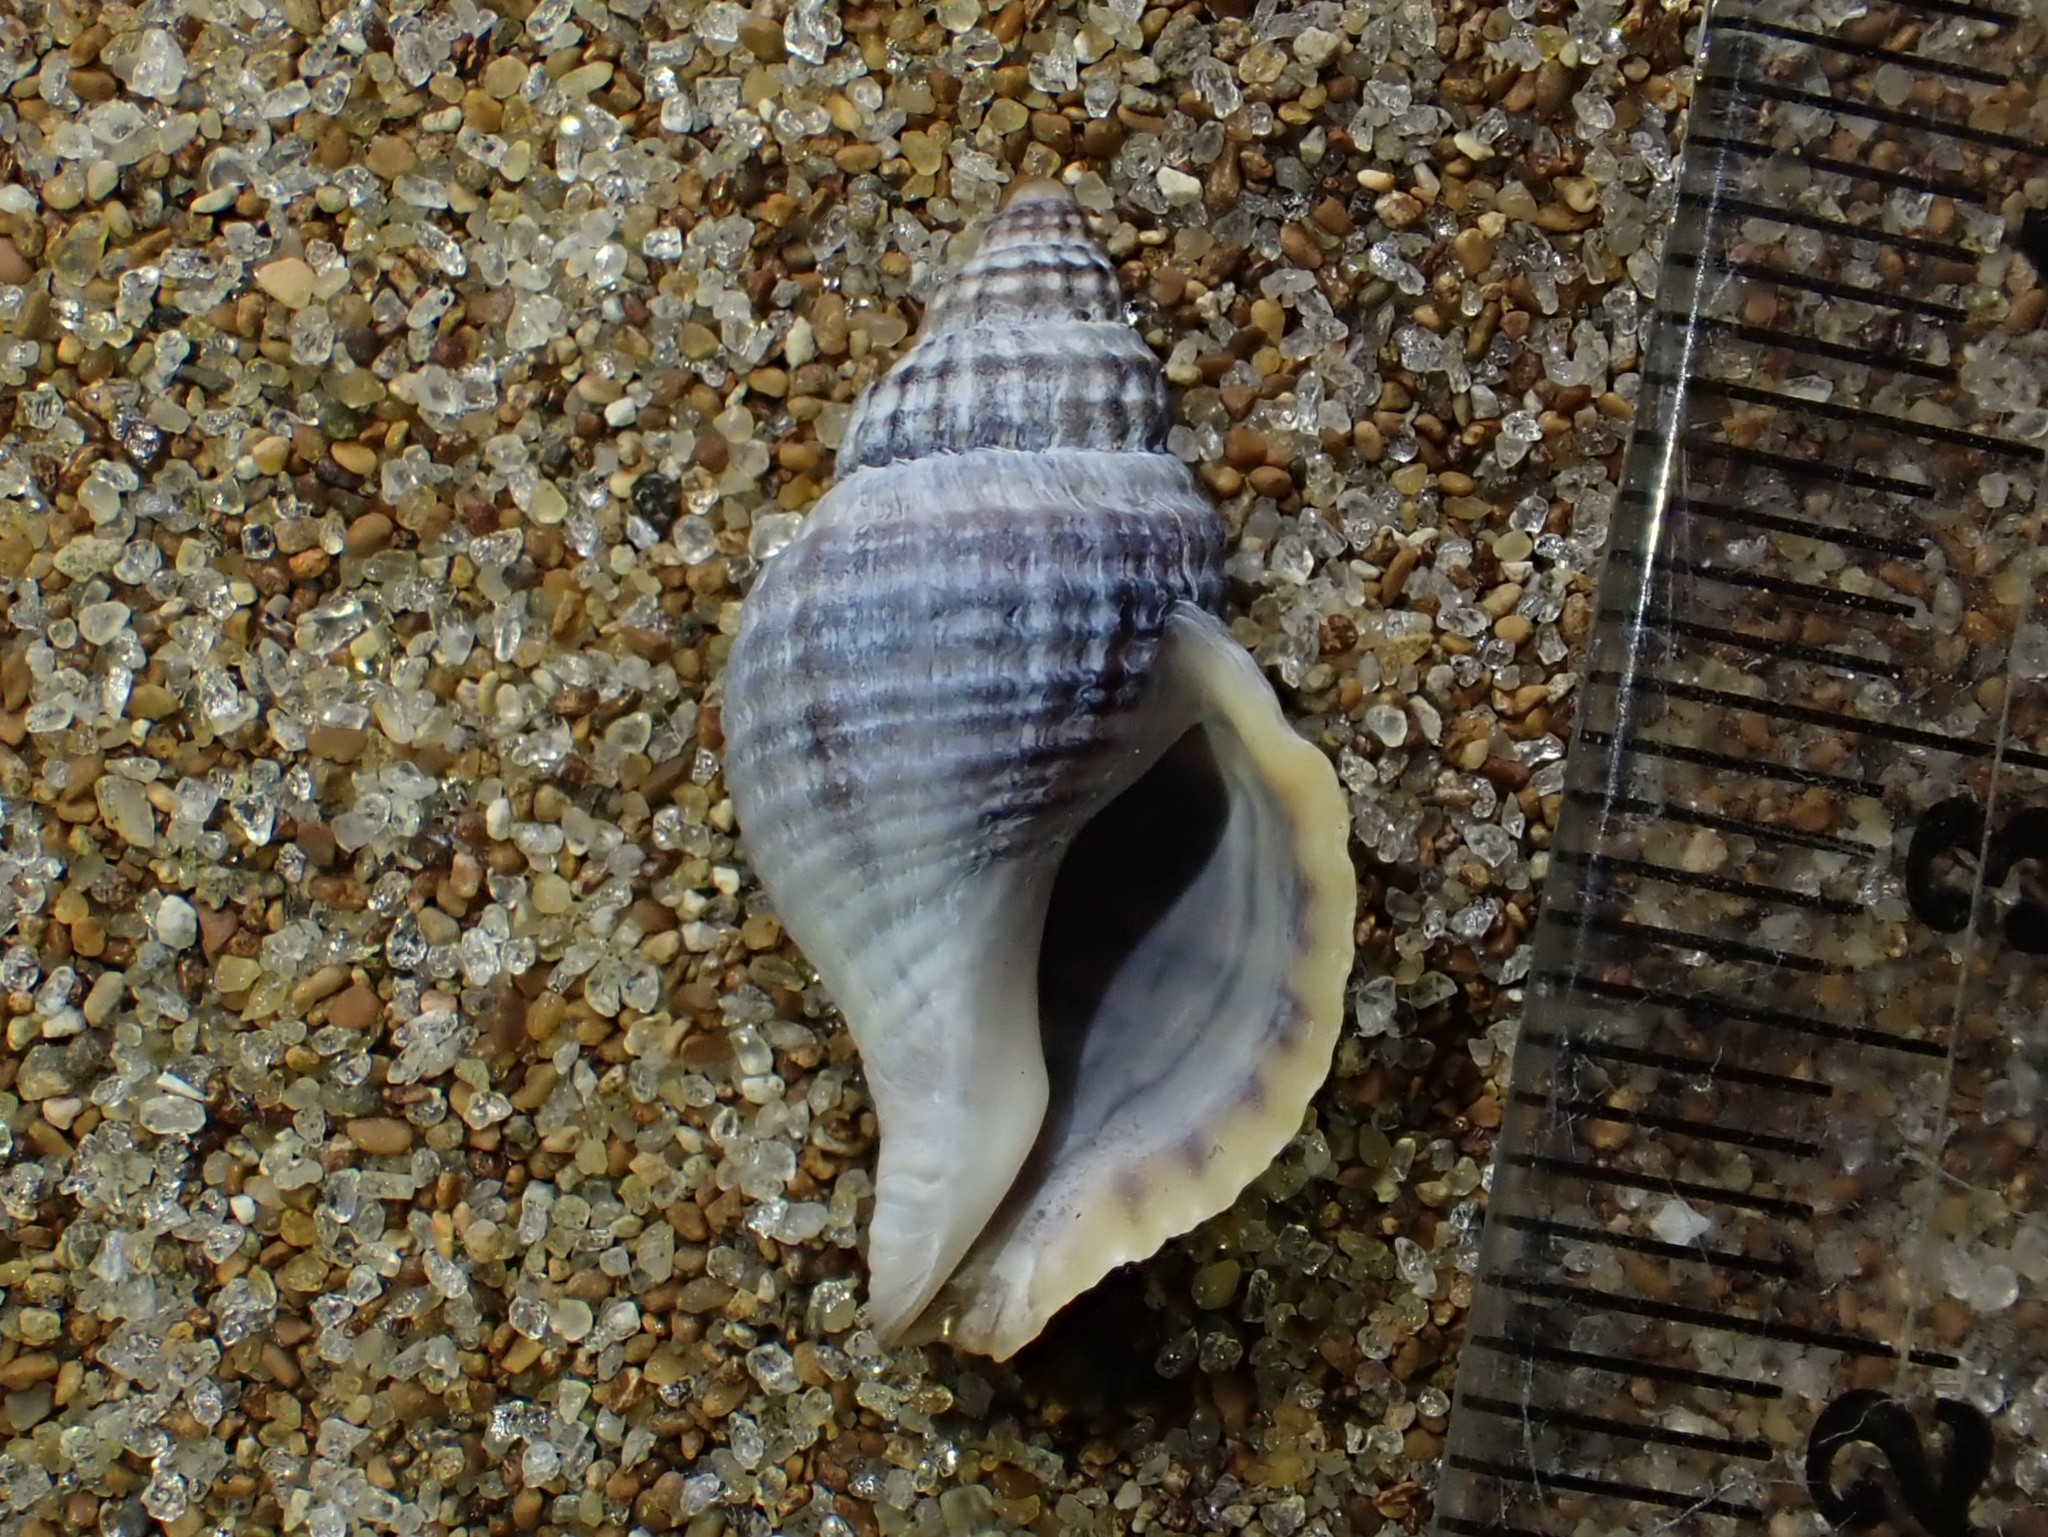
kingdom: Animalia
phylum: Mollusca
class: Gastropoda
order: Neogastropoda
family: Muricidae
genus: Xymene
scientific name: Xymene plebeius
